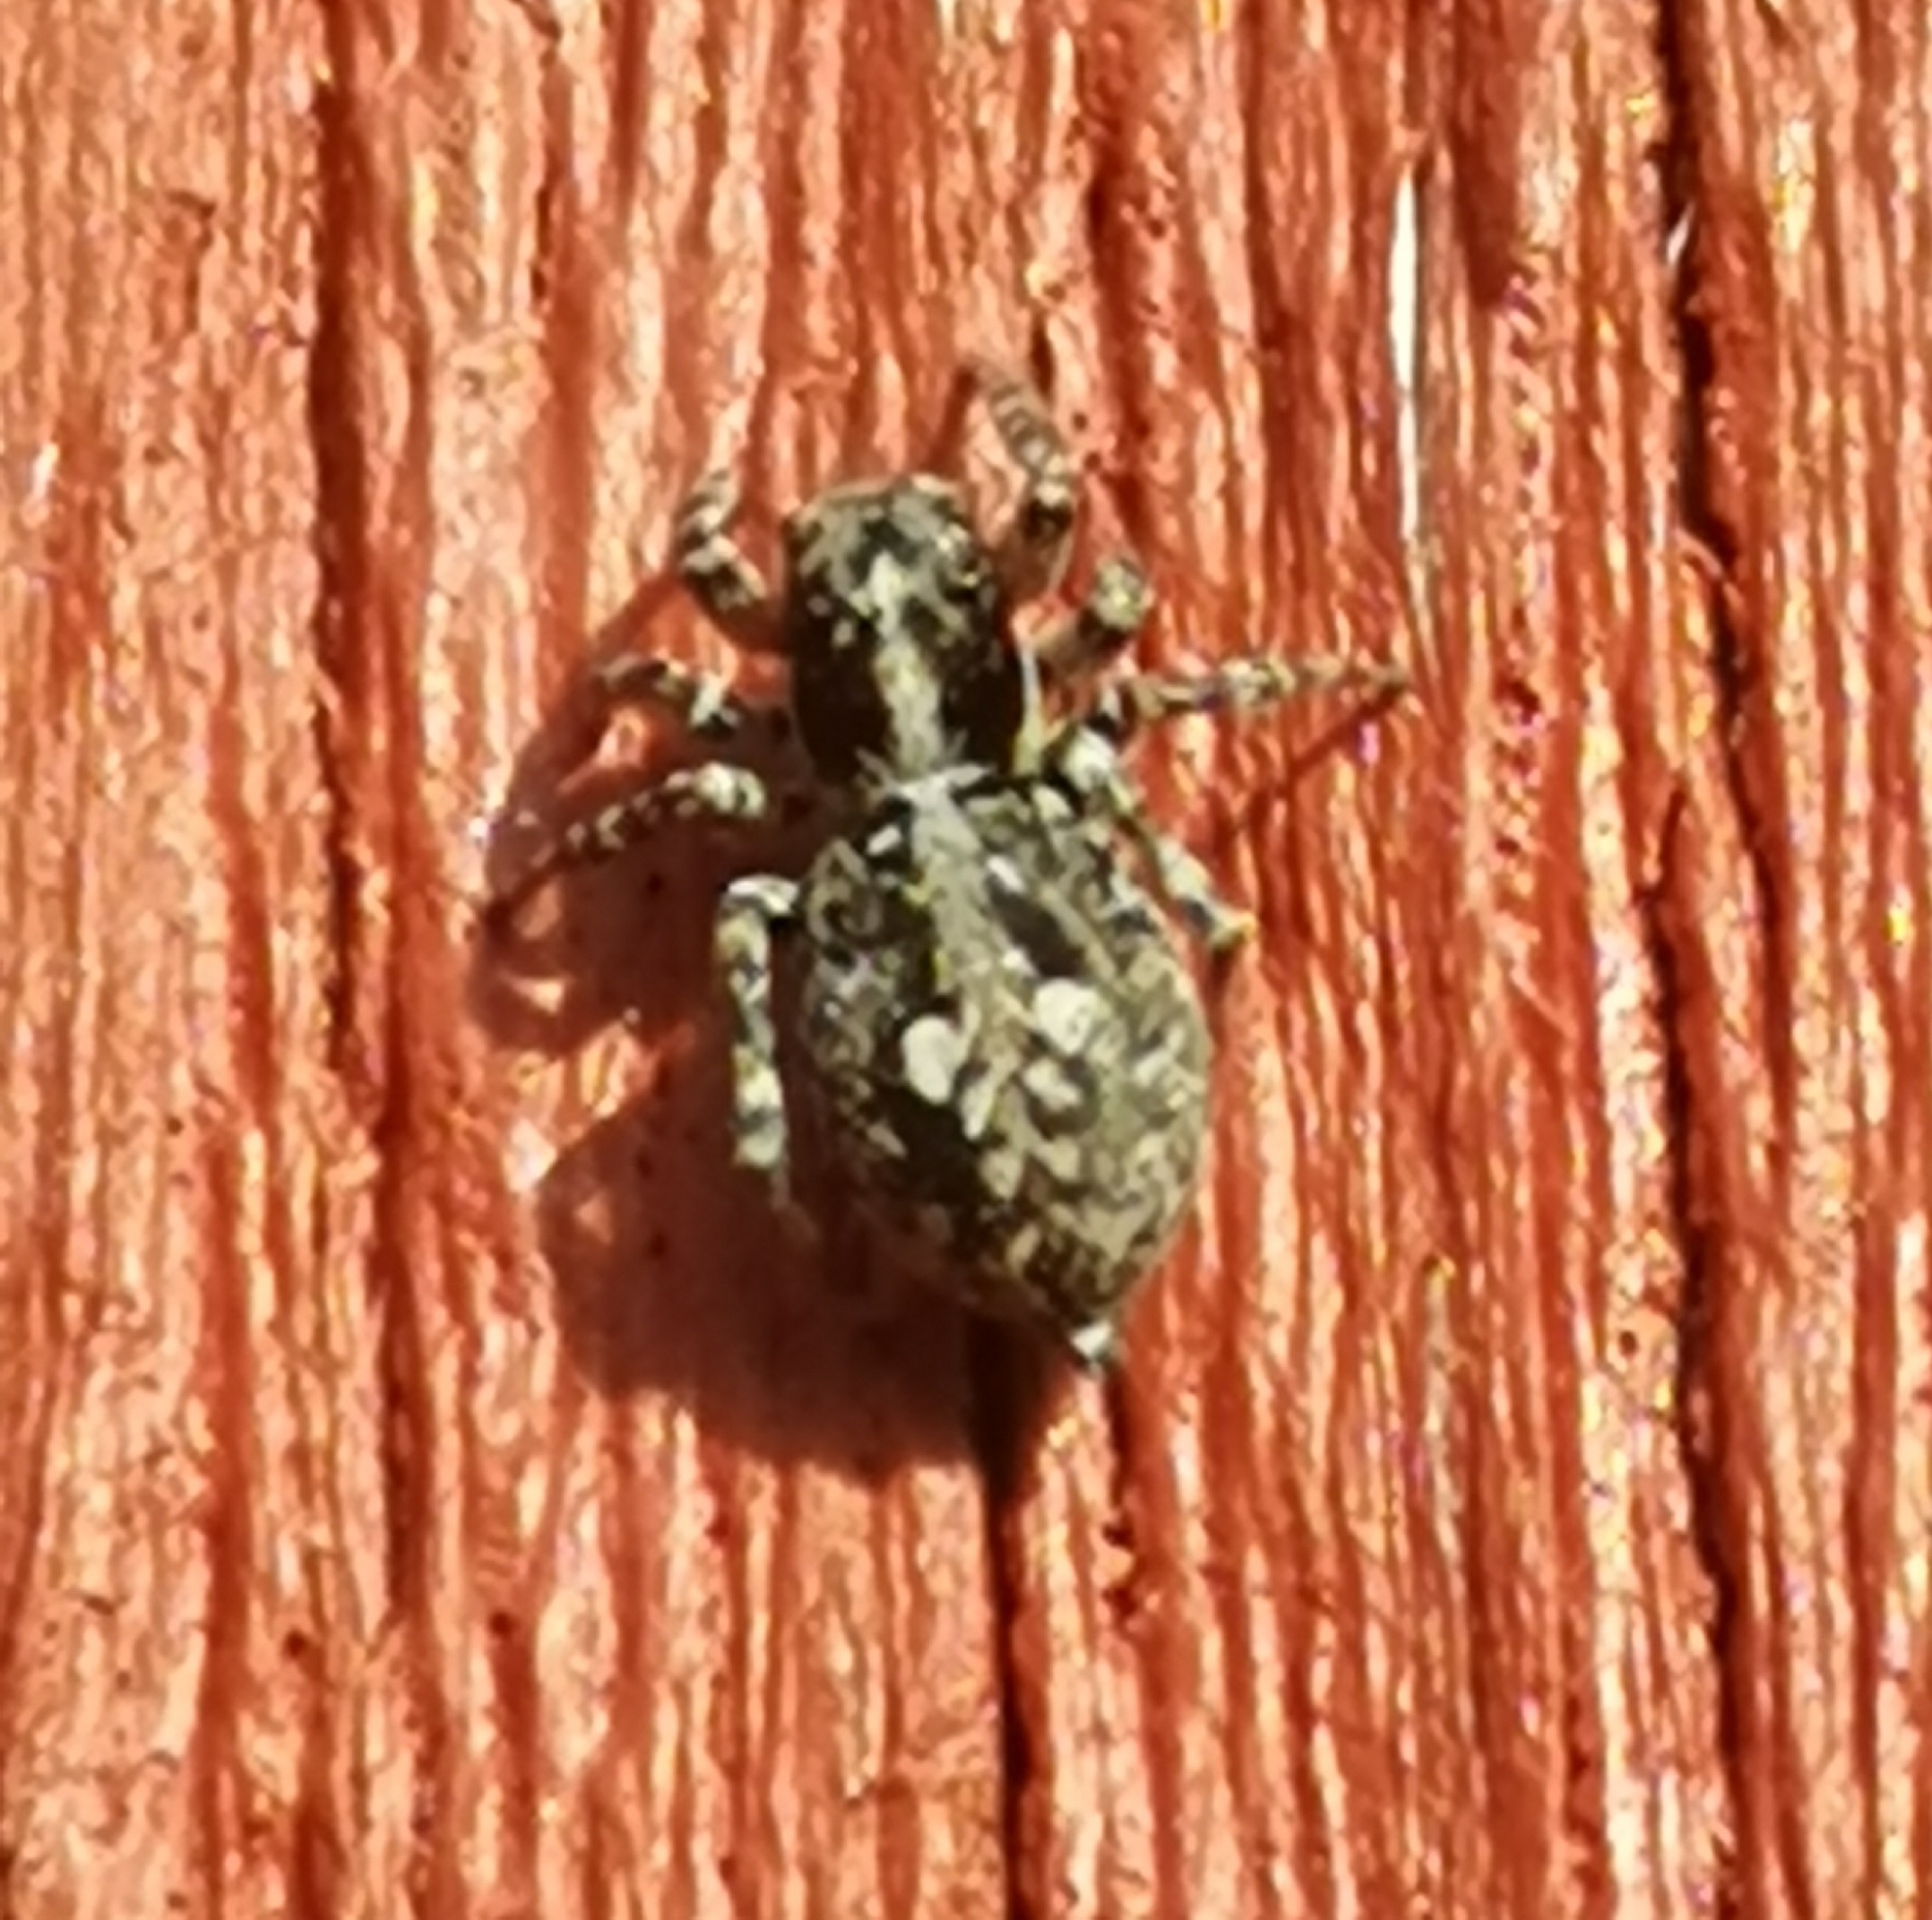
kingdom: Animalia
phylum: Arthropoda
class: Arachnida
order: Araneae
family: Salticidae
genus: Attulus
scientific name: Attulus terebratus
